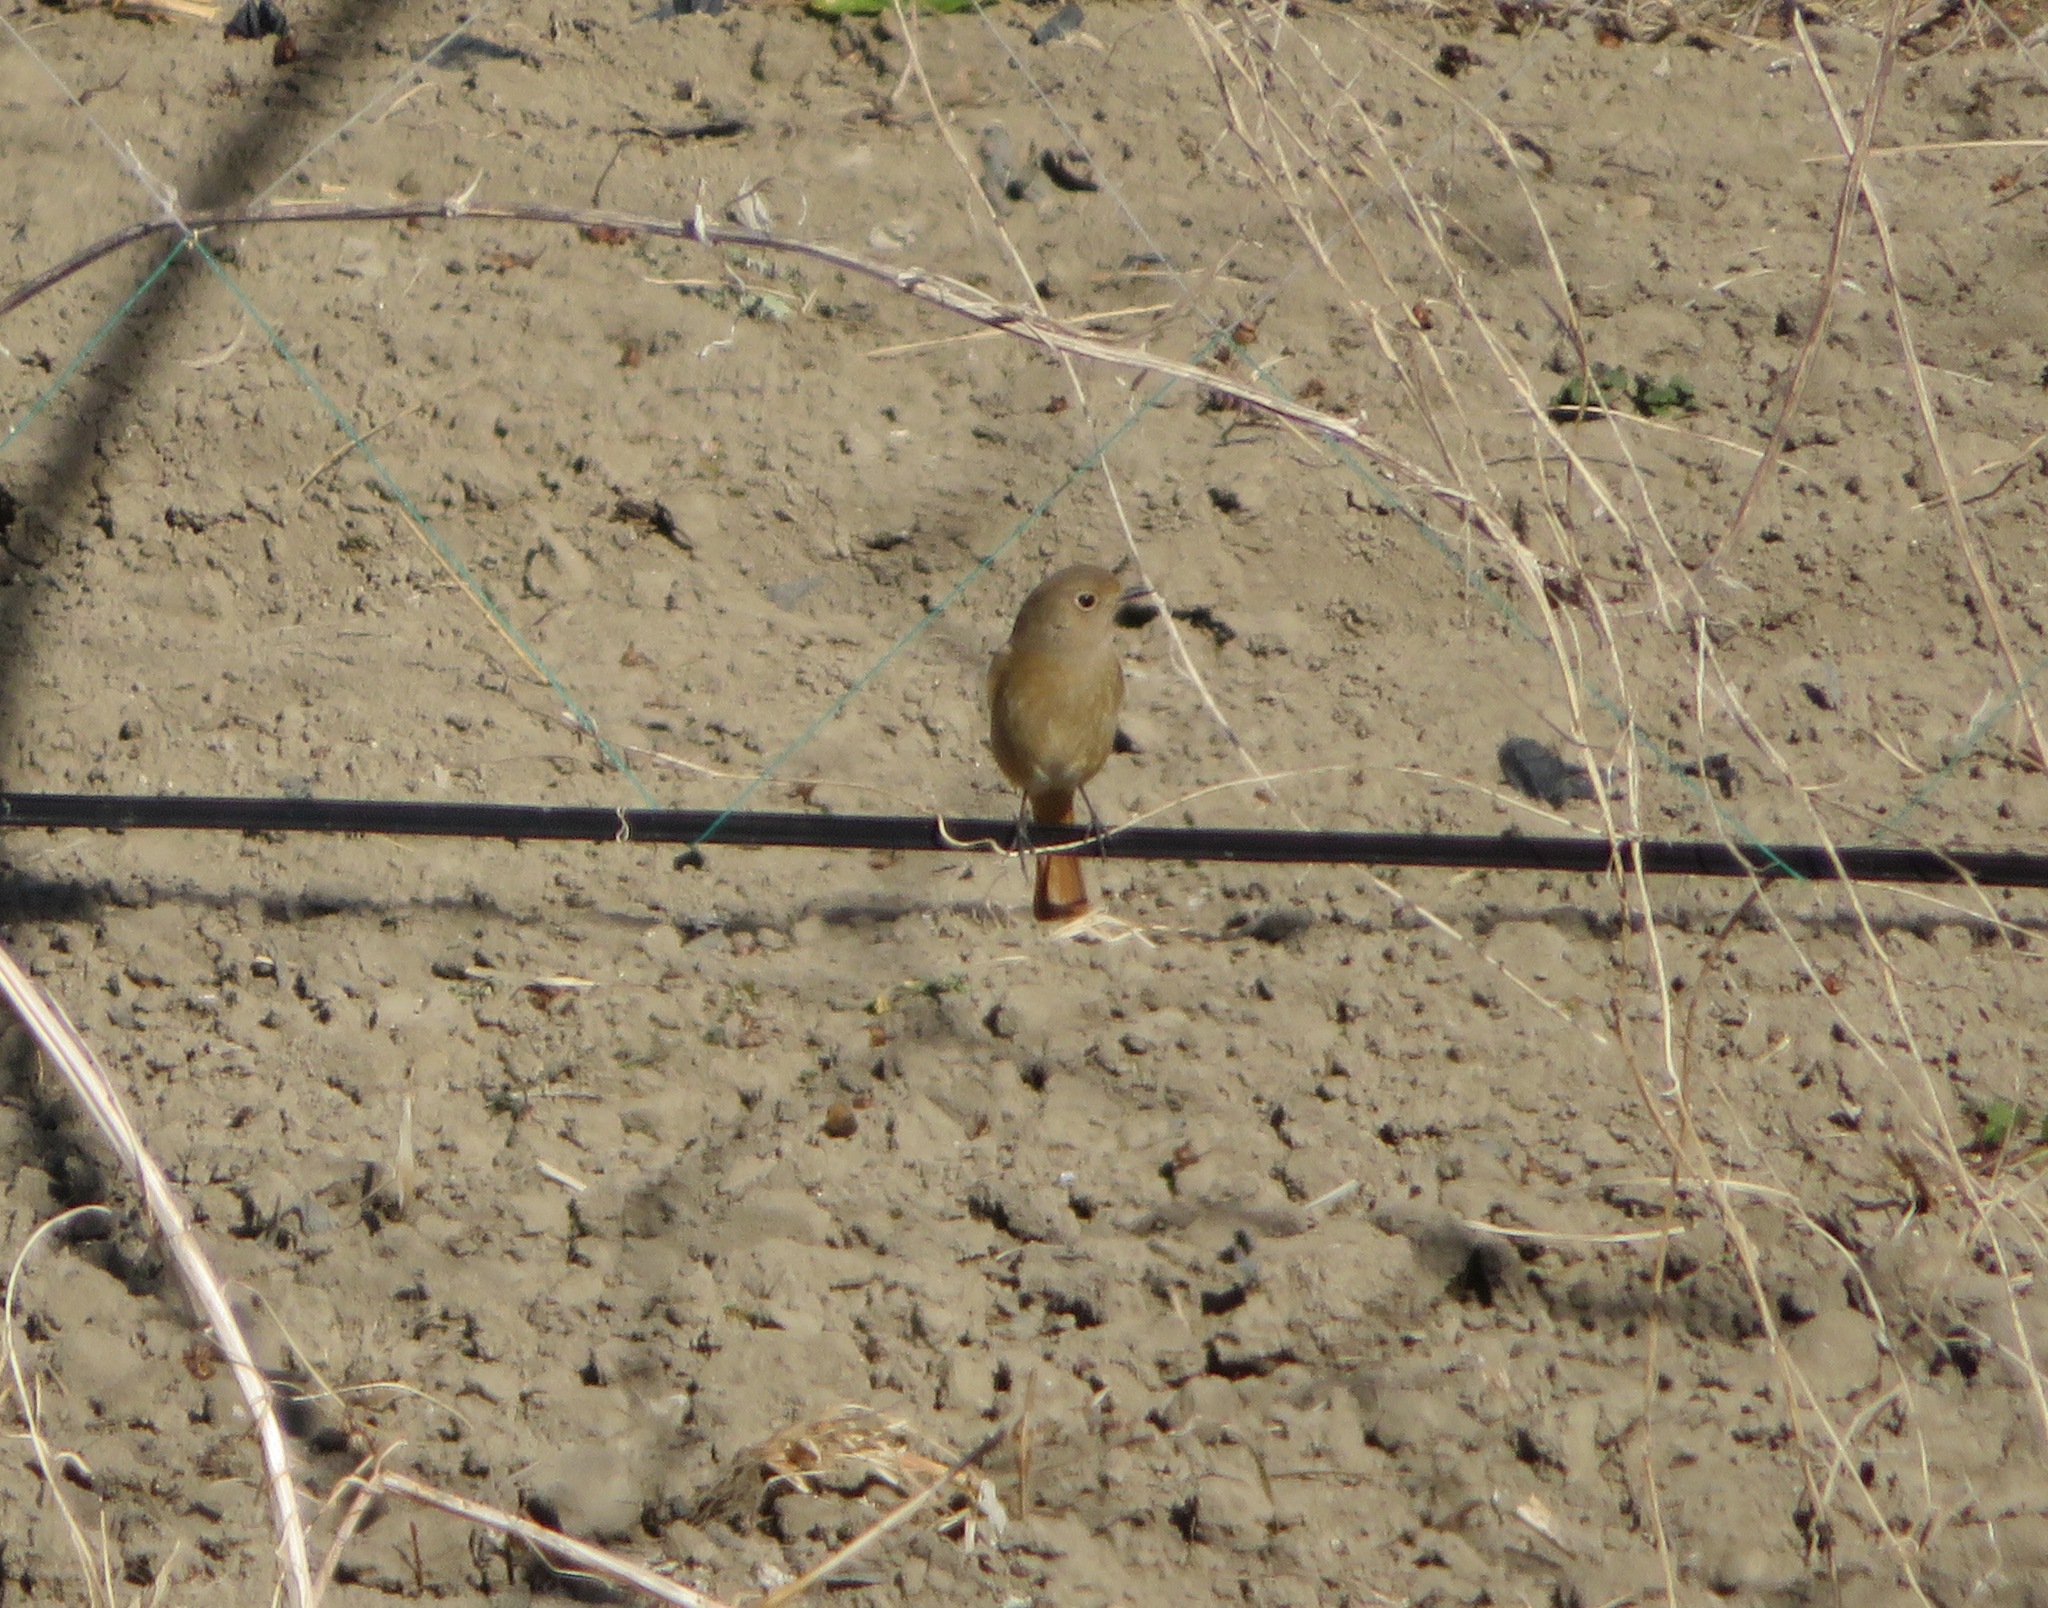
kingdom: Animalia
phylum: Chordata
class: Aves
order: Passeriformes
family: Muscicapidae
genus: Phoenicurus
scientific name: Phoenicurus auroreus
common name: Daurian redstart
